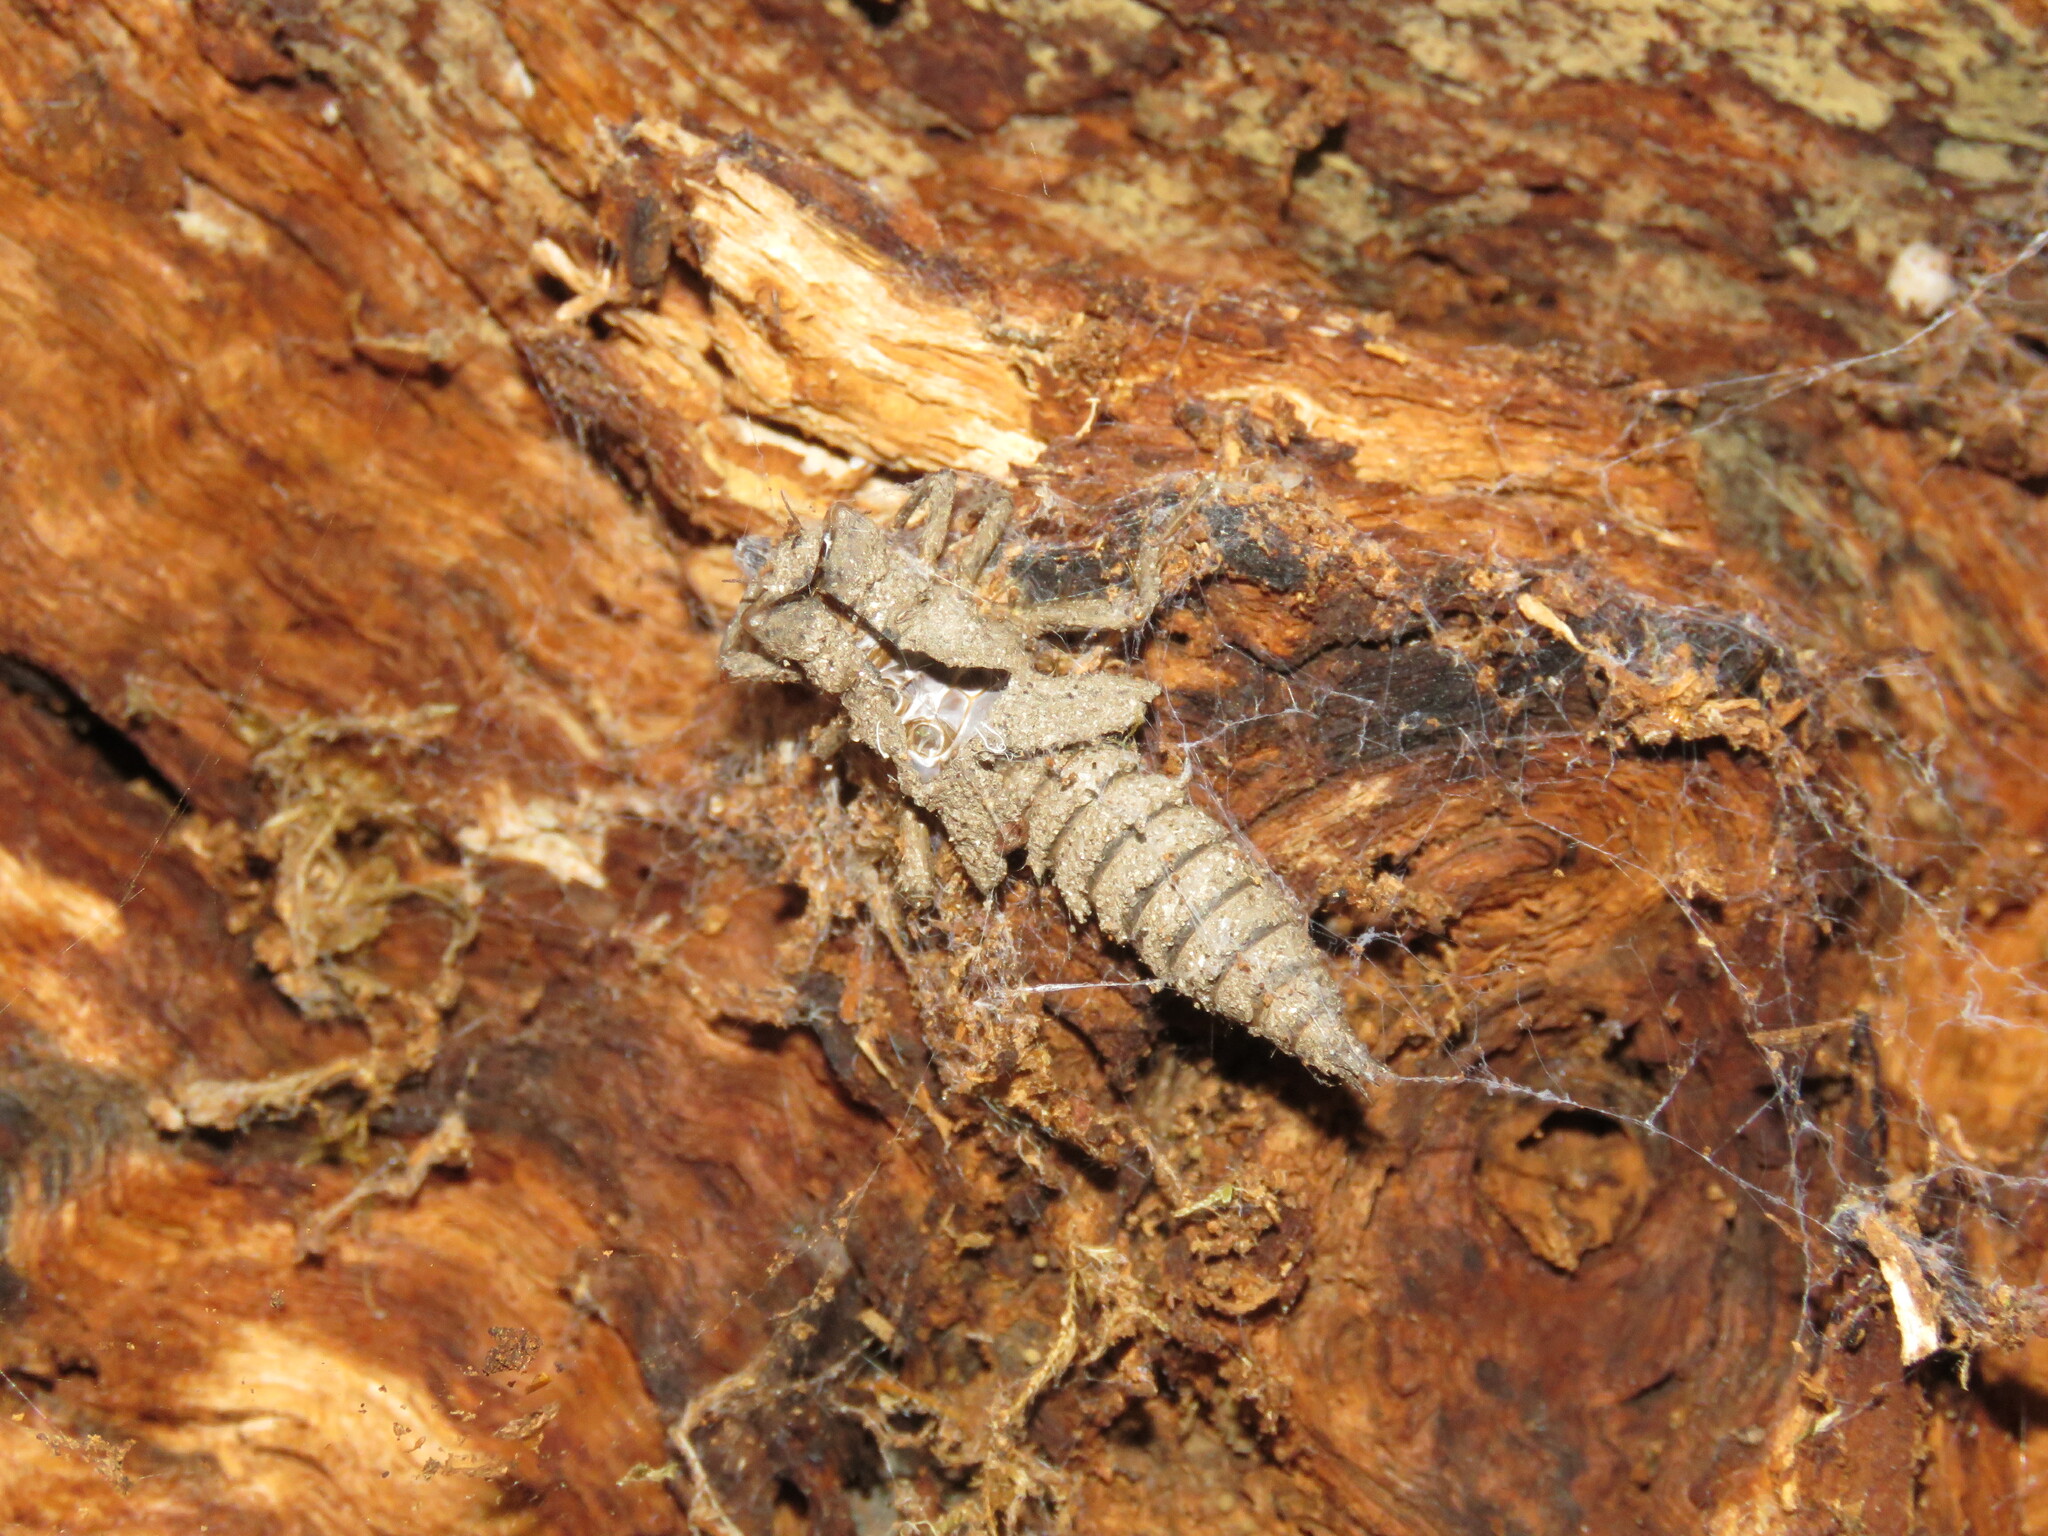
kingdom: Animalia
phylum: Arthropoda
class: Insecta
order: Odonata
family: Cordulegastridae
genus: Cordulegaster
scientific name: Cordulegaster boltonii
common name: Golden-ringed dragonfly
